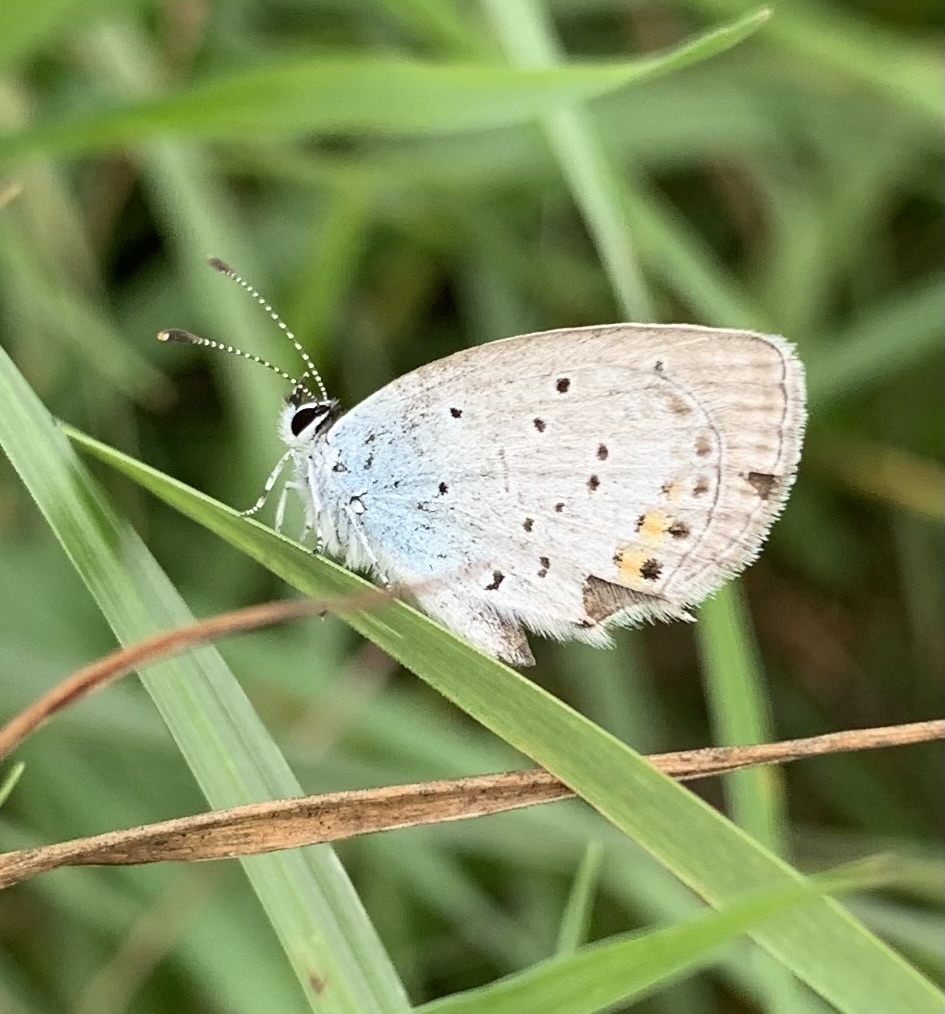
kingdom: Animalia
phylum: Arthropoda
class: Insecta
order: Lepidoptera
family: Lycaenidae
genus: Elkalyce
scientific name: Elkalyce argiades
